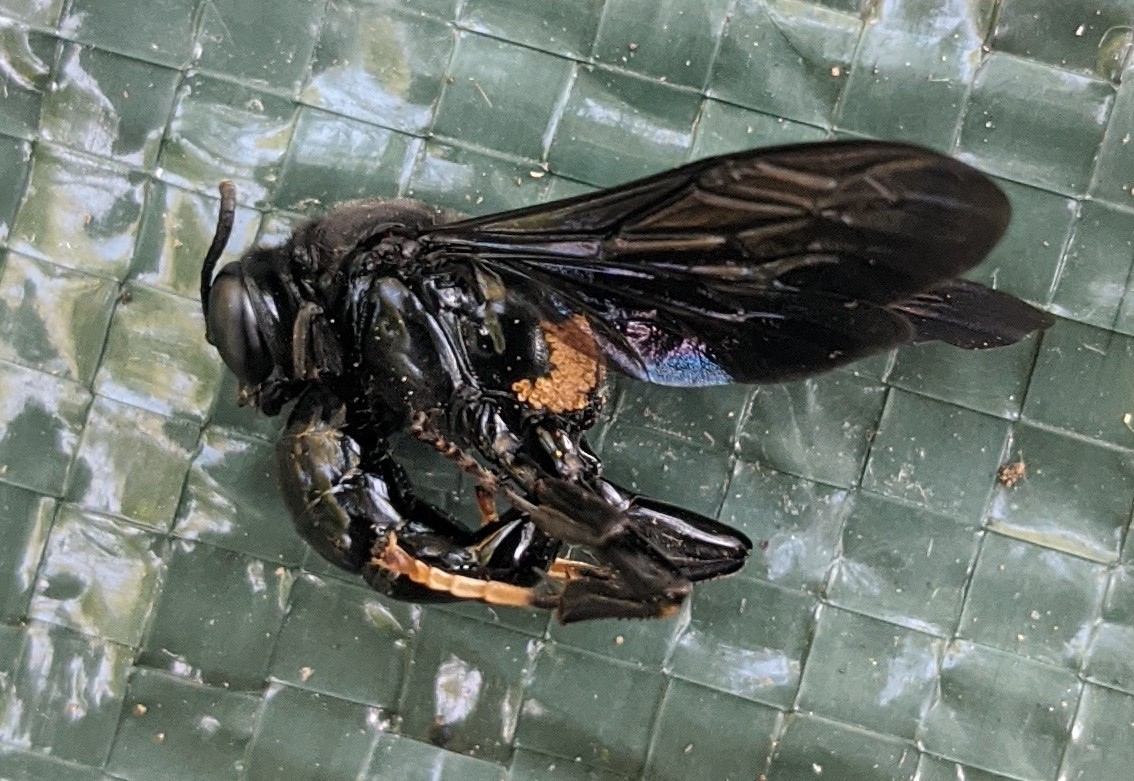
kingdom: Animalia
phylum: Arthropoda
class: Insecta
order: Hymenoptera
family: Crabronidae
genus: Trypoxylon
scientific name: Trypoxylon politum
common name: Organ-pipe mud-dauber wasp
